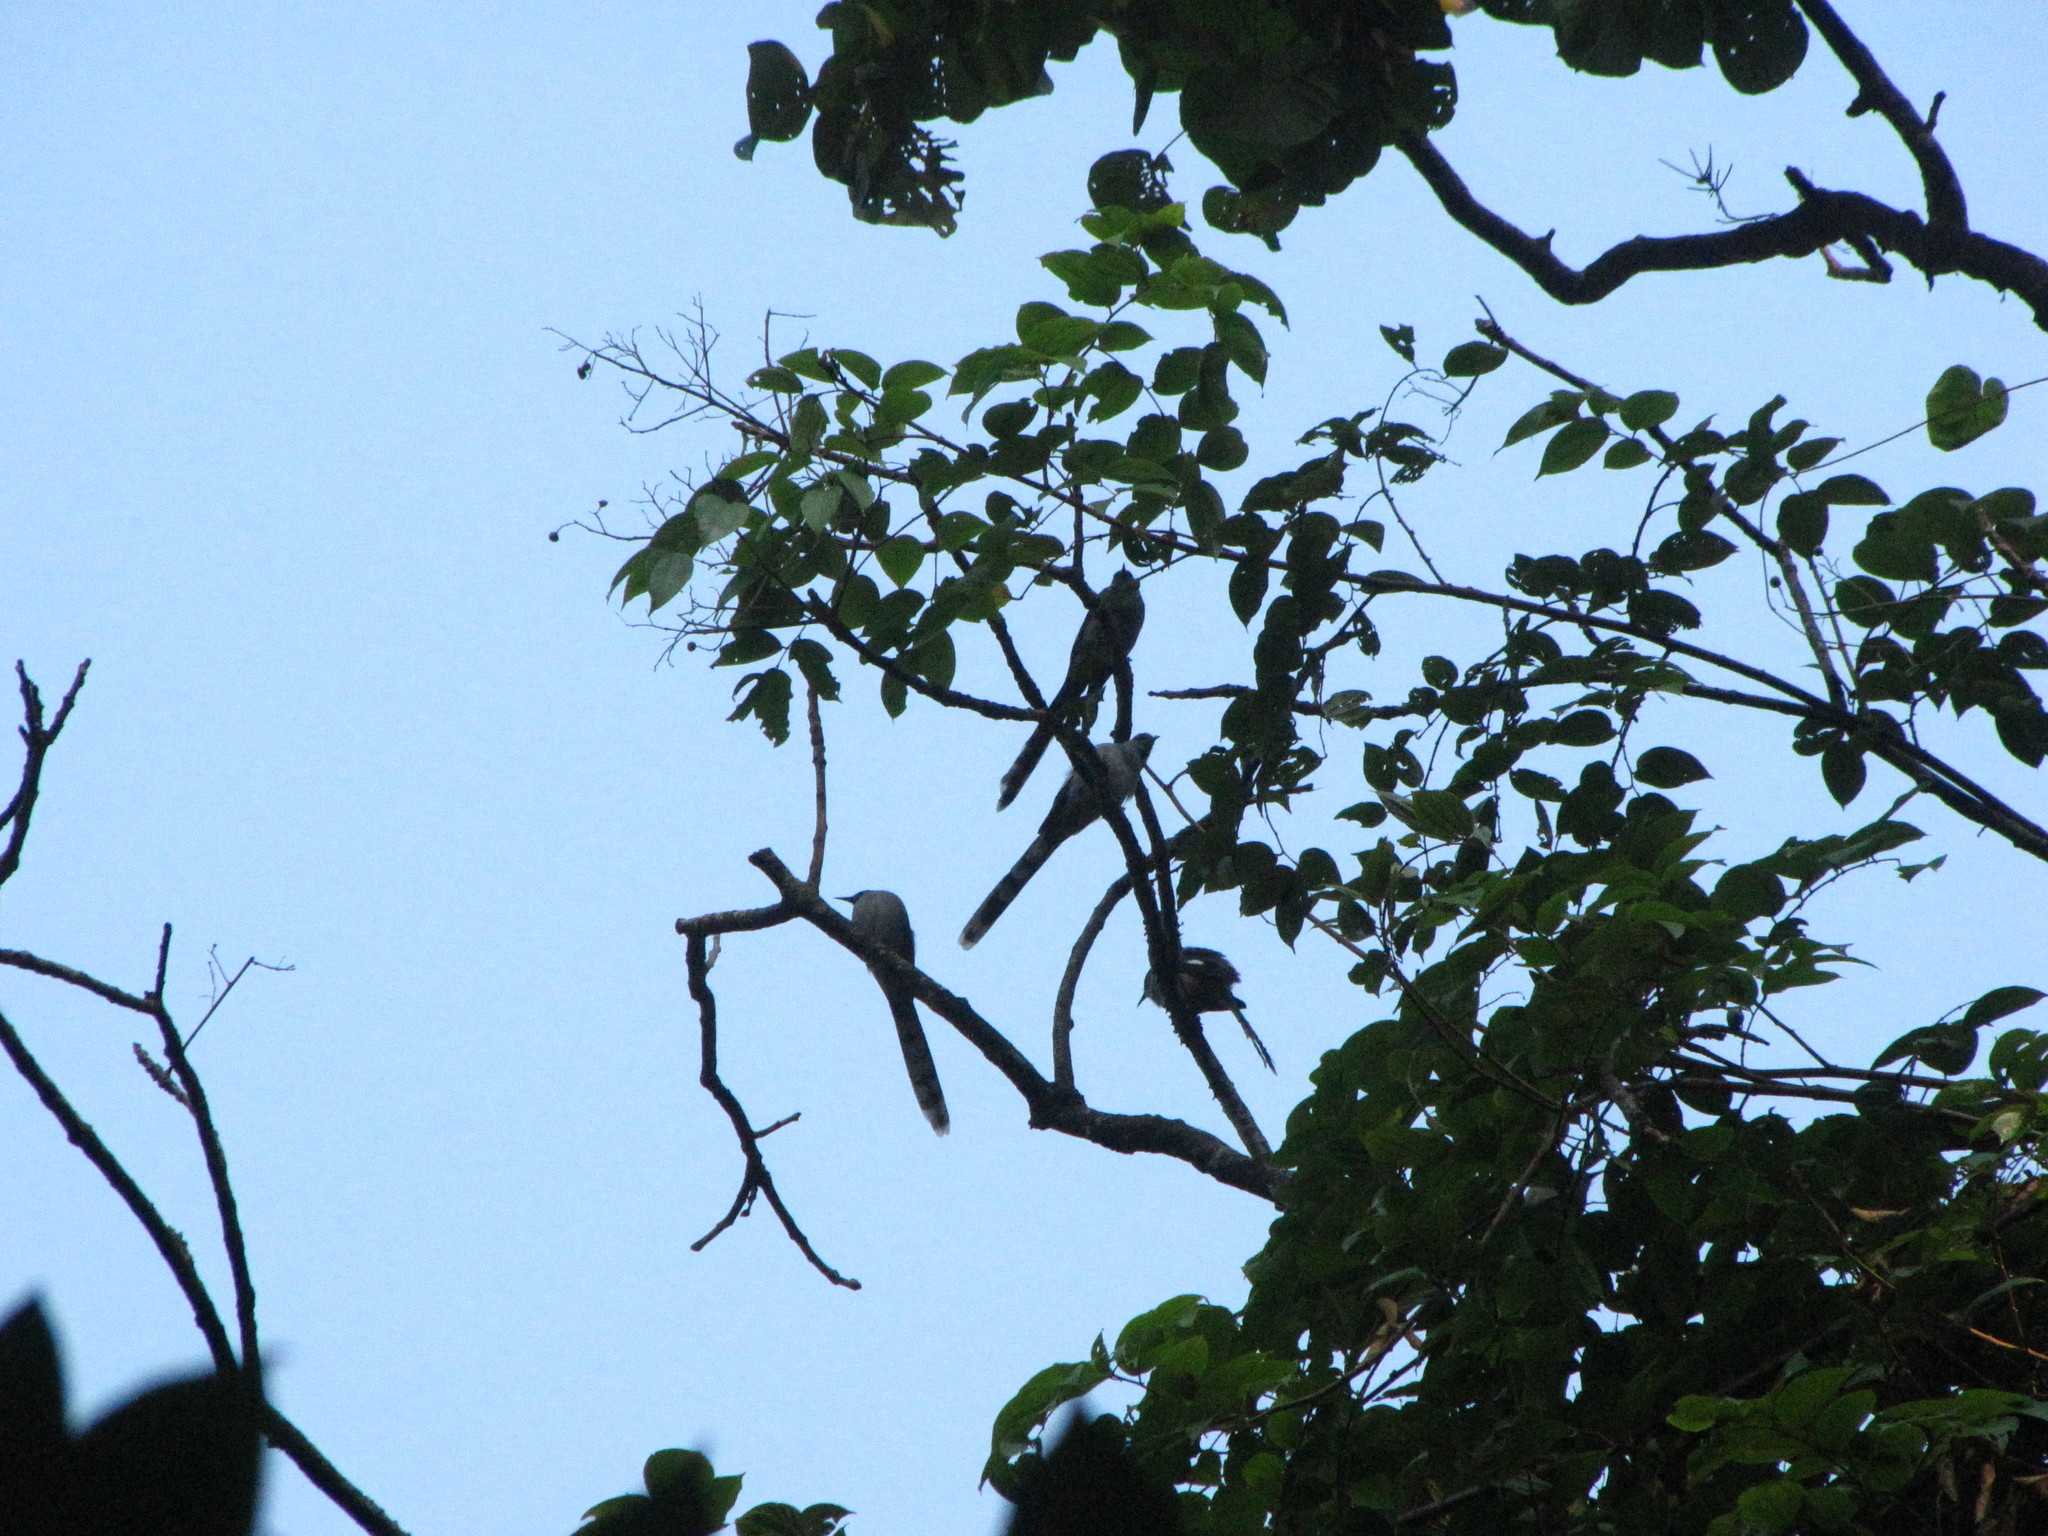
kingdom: Animalia
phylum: Chordata
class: Aves
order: Passeriformes
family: Leiothrichidae
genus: Heterophasia
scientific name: Heterophasia picaoides
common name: Long-tailed sibia
